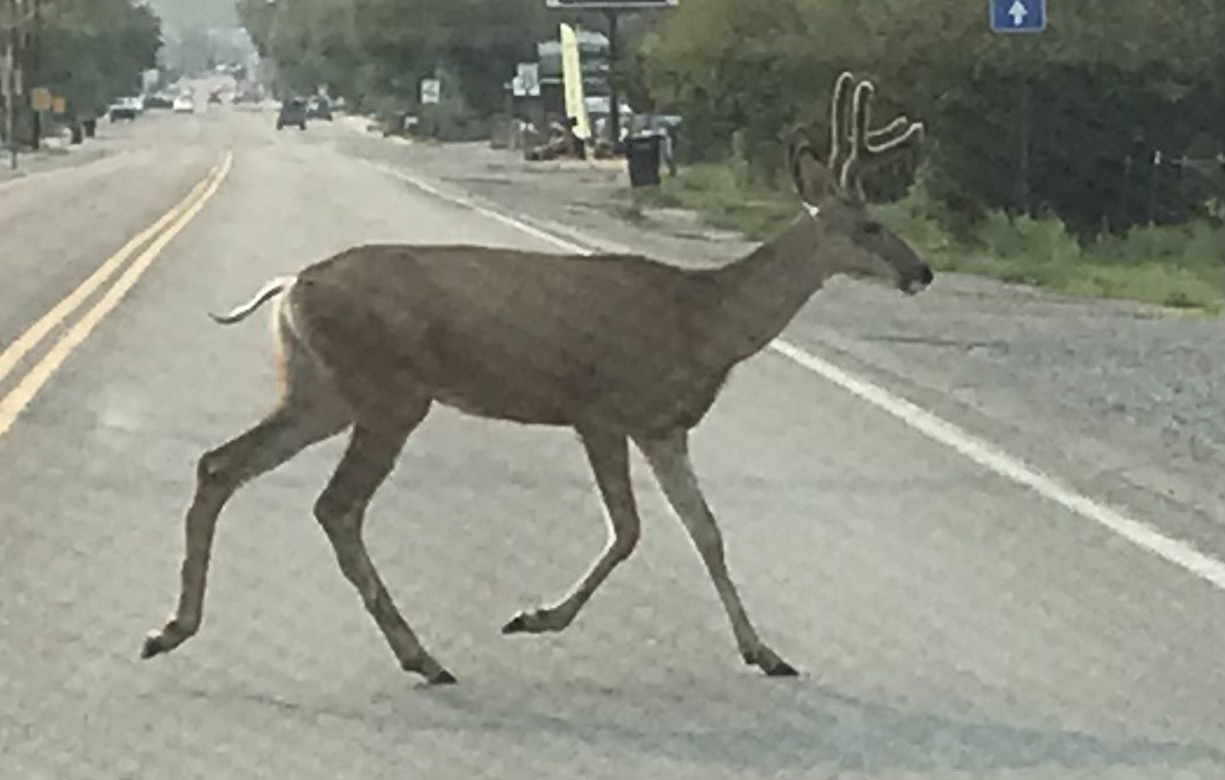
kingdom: Animalia
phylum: Chordata
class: Mammalia
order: Artiodactyla
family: Cervidae
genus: Odocoileus
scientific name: Odocoileus hemionus
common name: Mule deer
